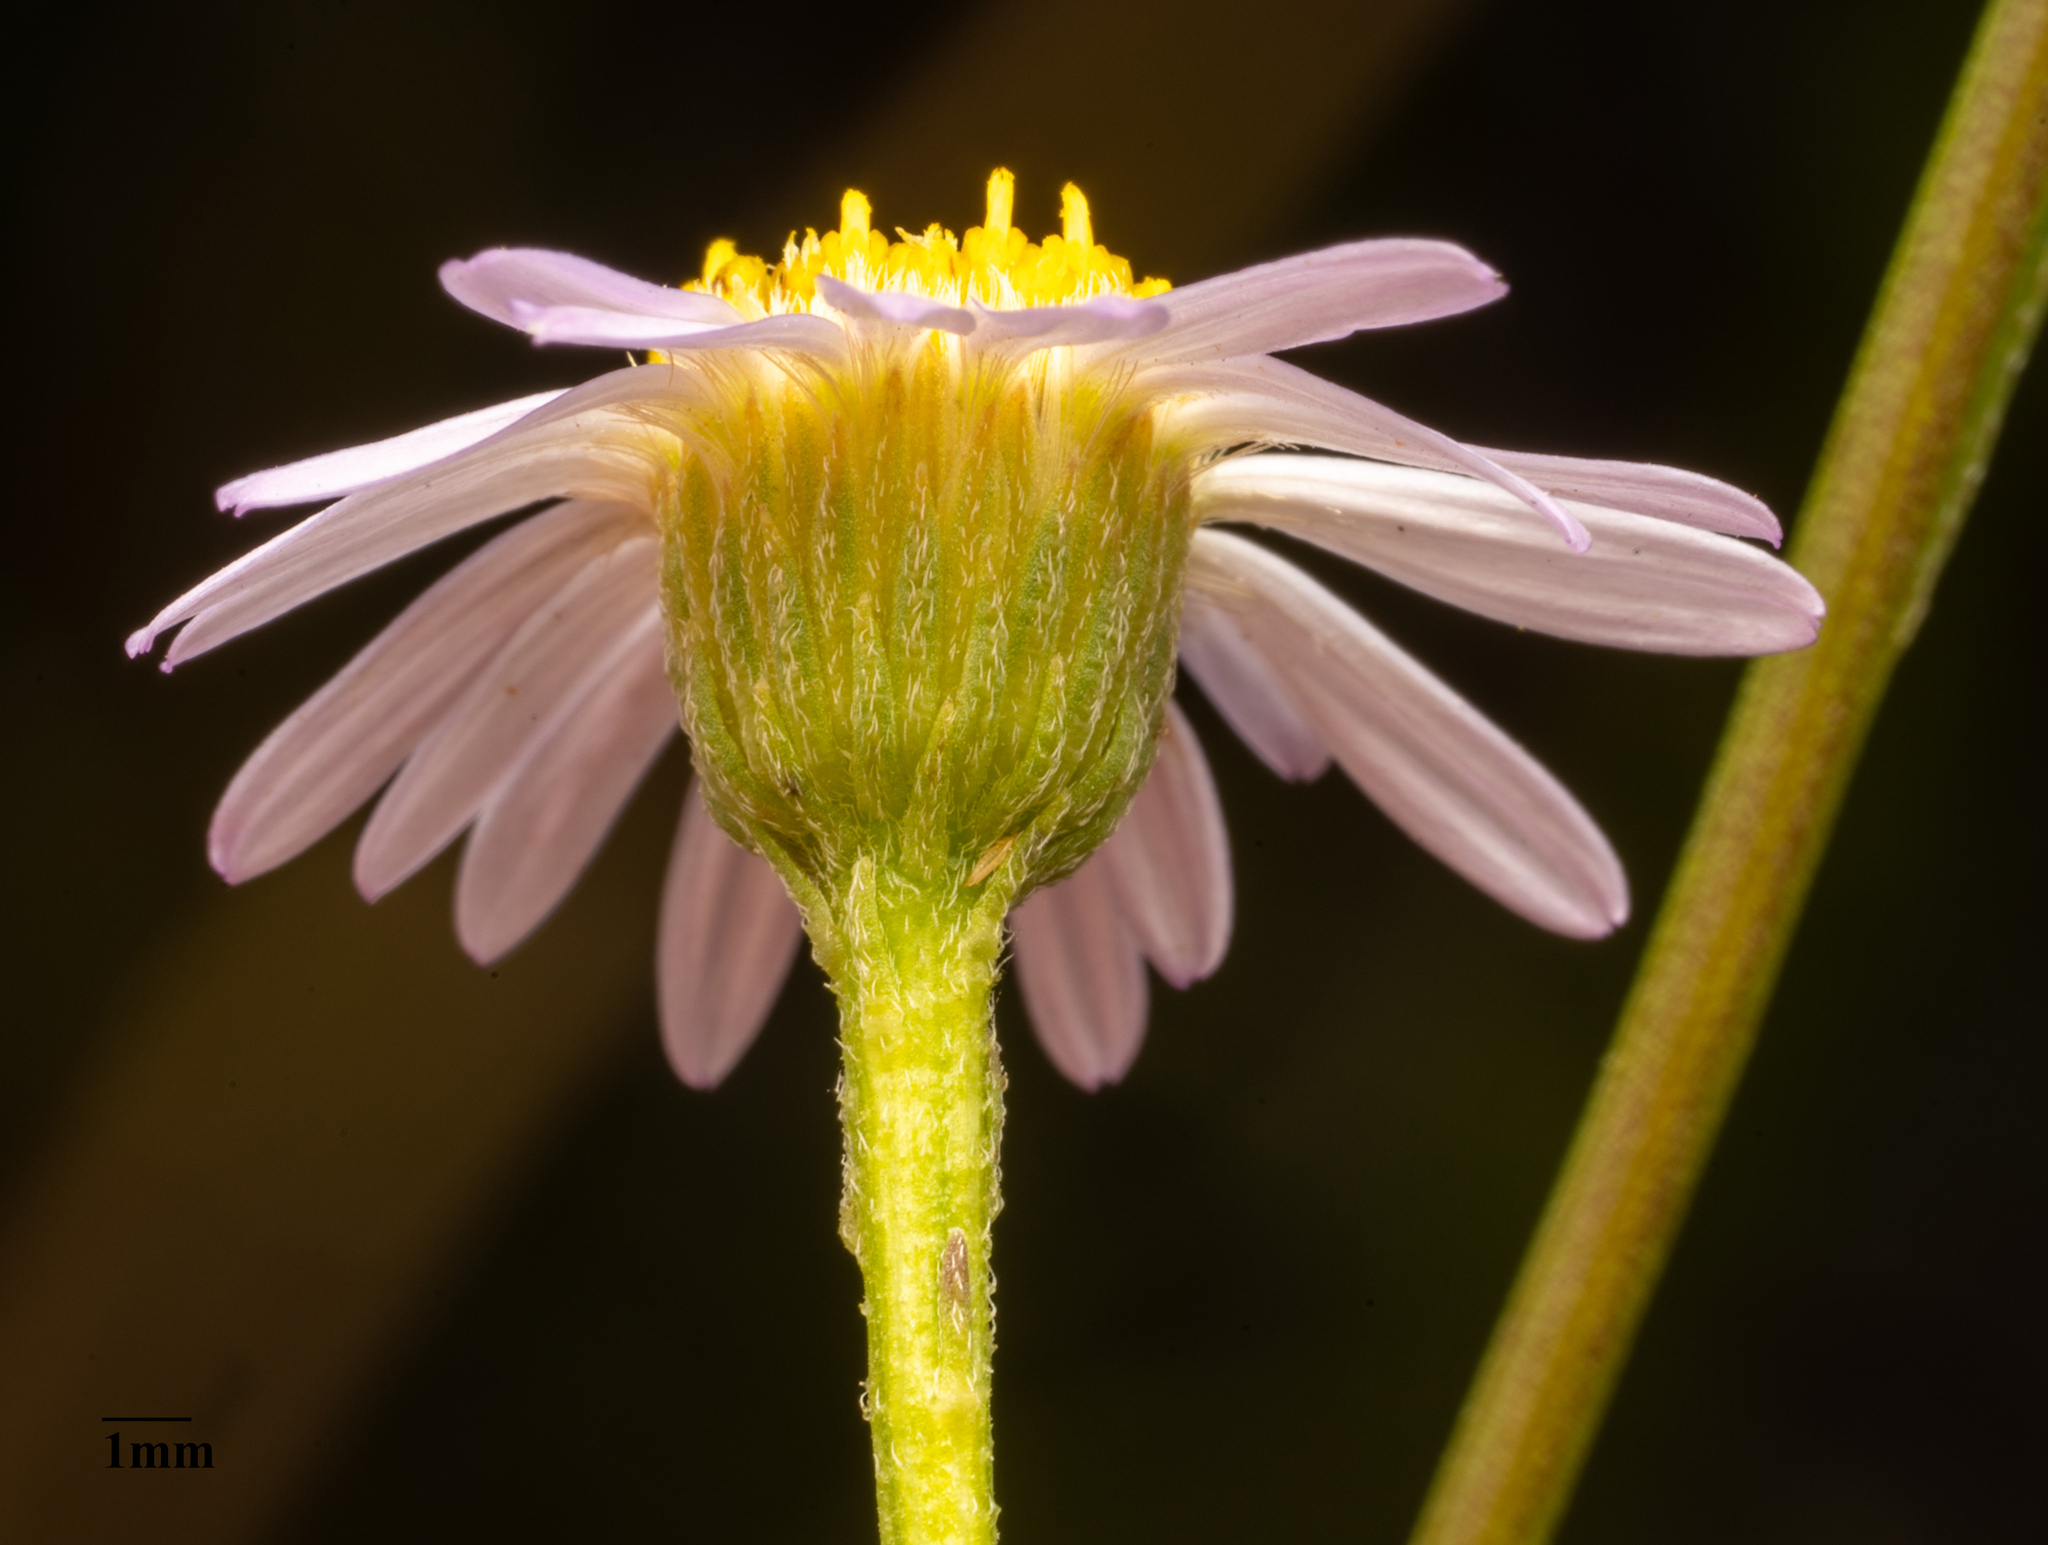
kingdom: Plantae
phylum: Tracheophyta
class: Magnoliopsida
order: Asterales
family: Asteraceae
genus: Erigeron
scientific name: Erigeron foliosus
